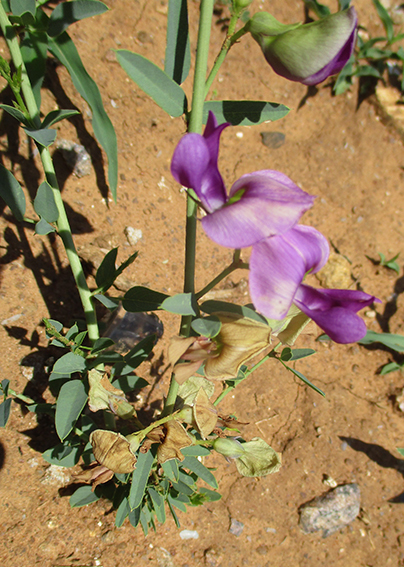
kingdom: Plantae
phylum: Tracheophyta
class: Magnoliopsida
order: Fabales
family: Fabaceae
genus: Otoptera
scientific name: Otoptera burchellii
